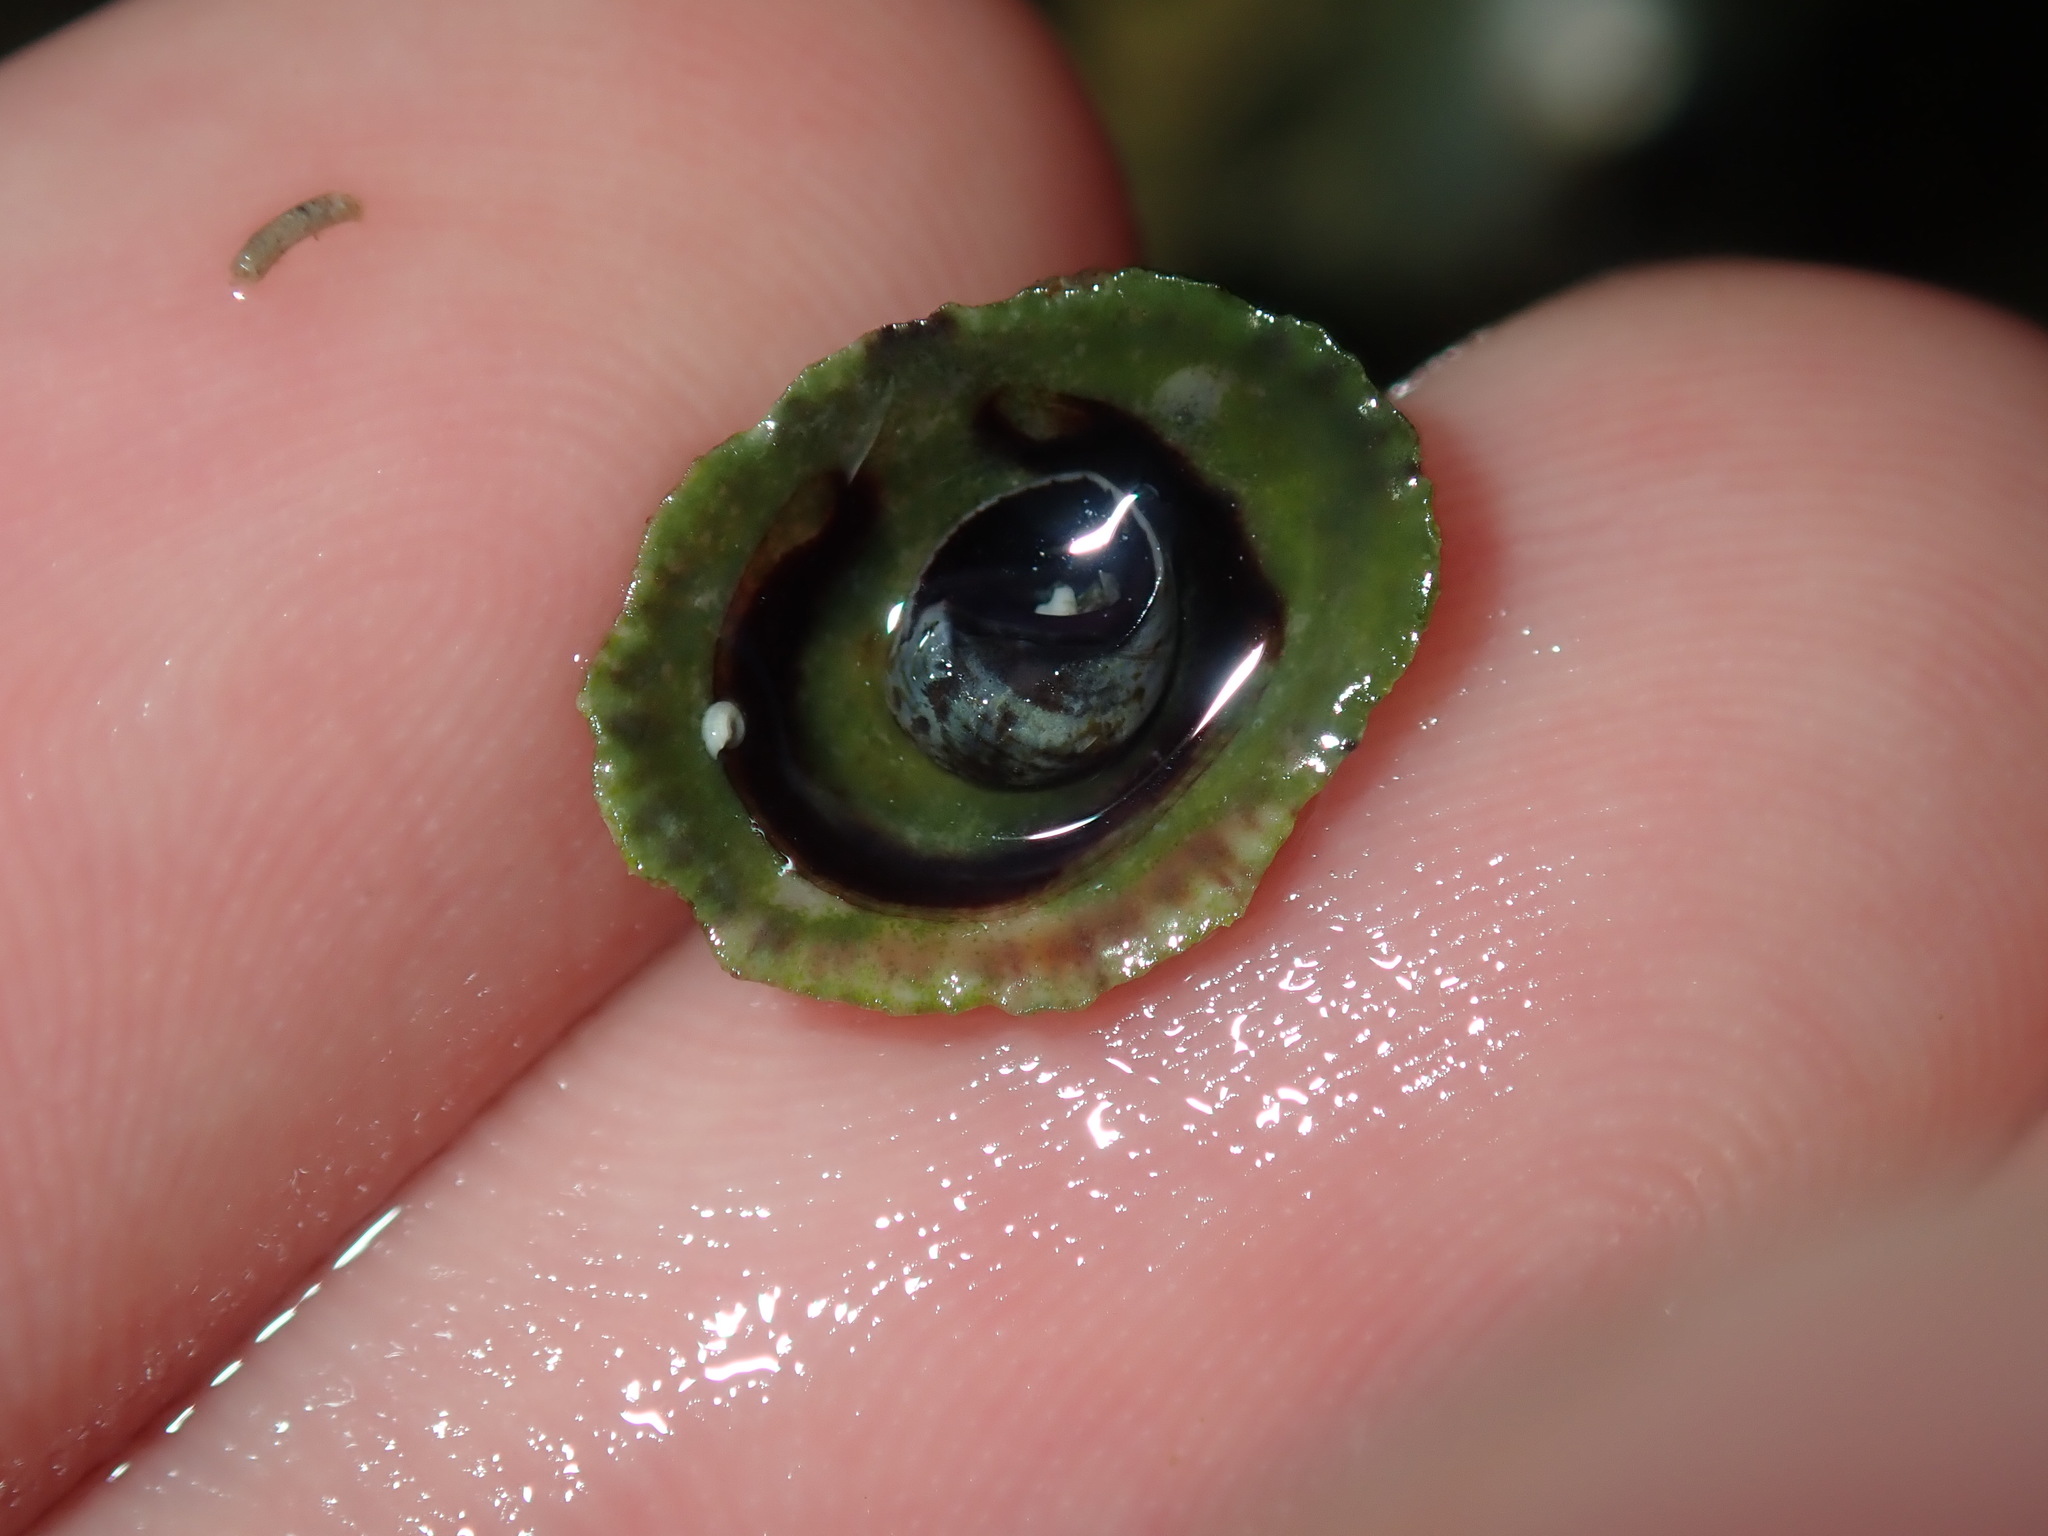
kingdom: Animalia
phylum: Mollusca
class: Gastropoda
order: Siphonariida
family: Siphonariidae
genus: Siphonaria
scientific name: Siphonaria funiculata
